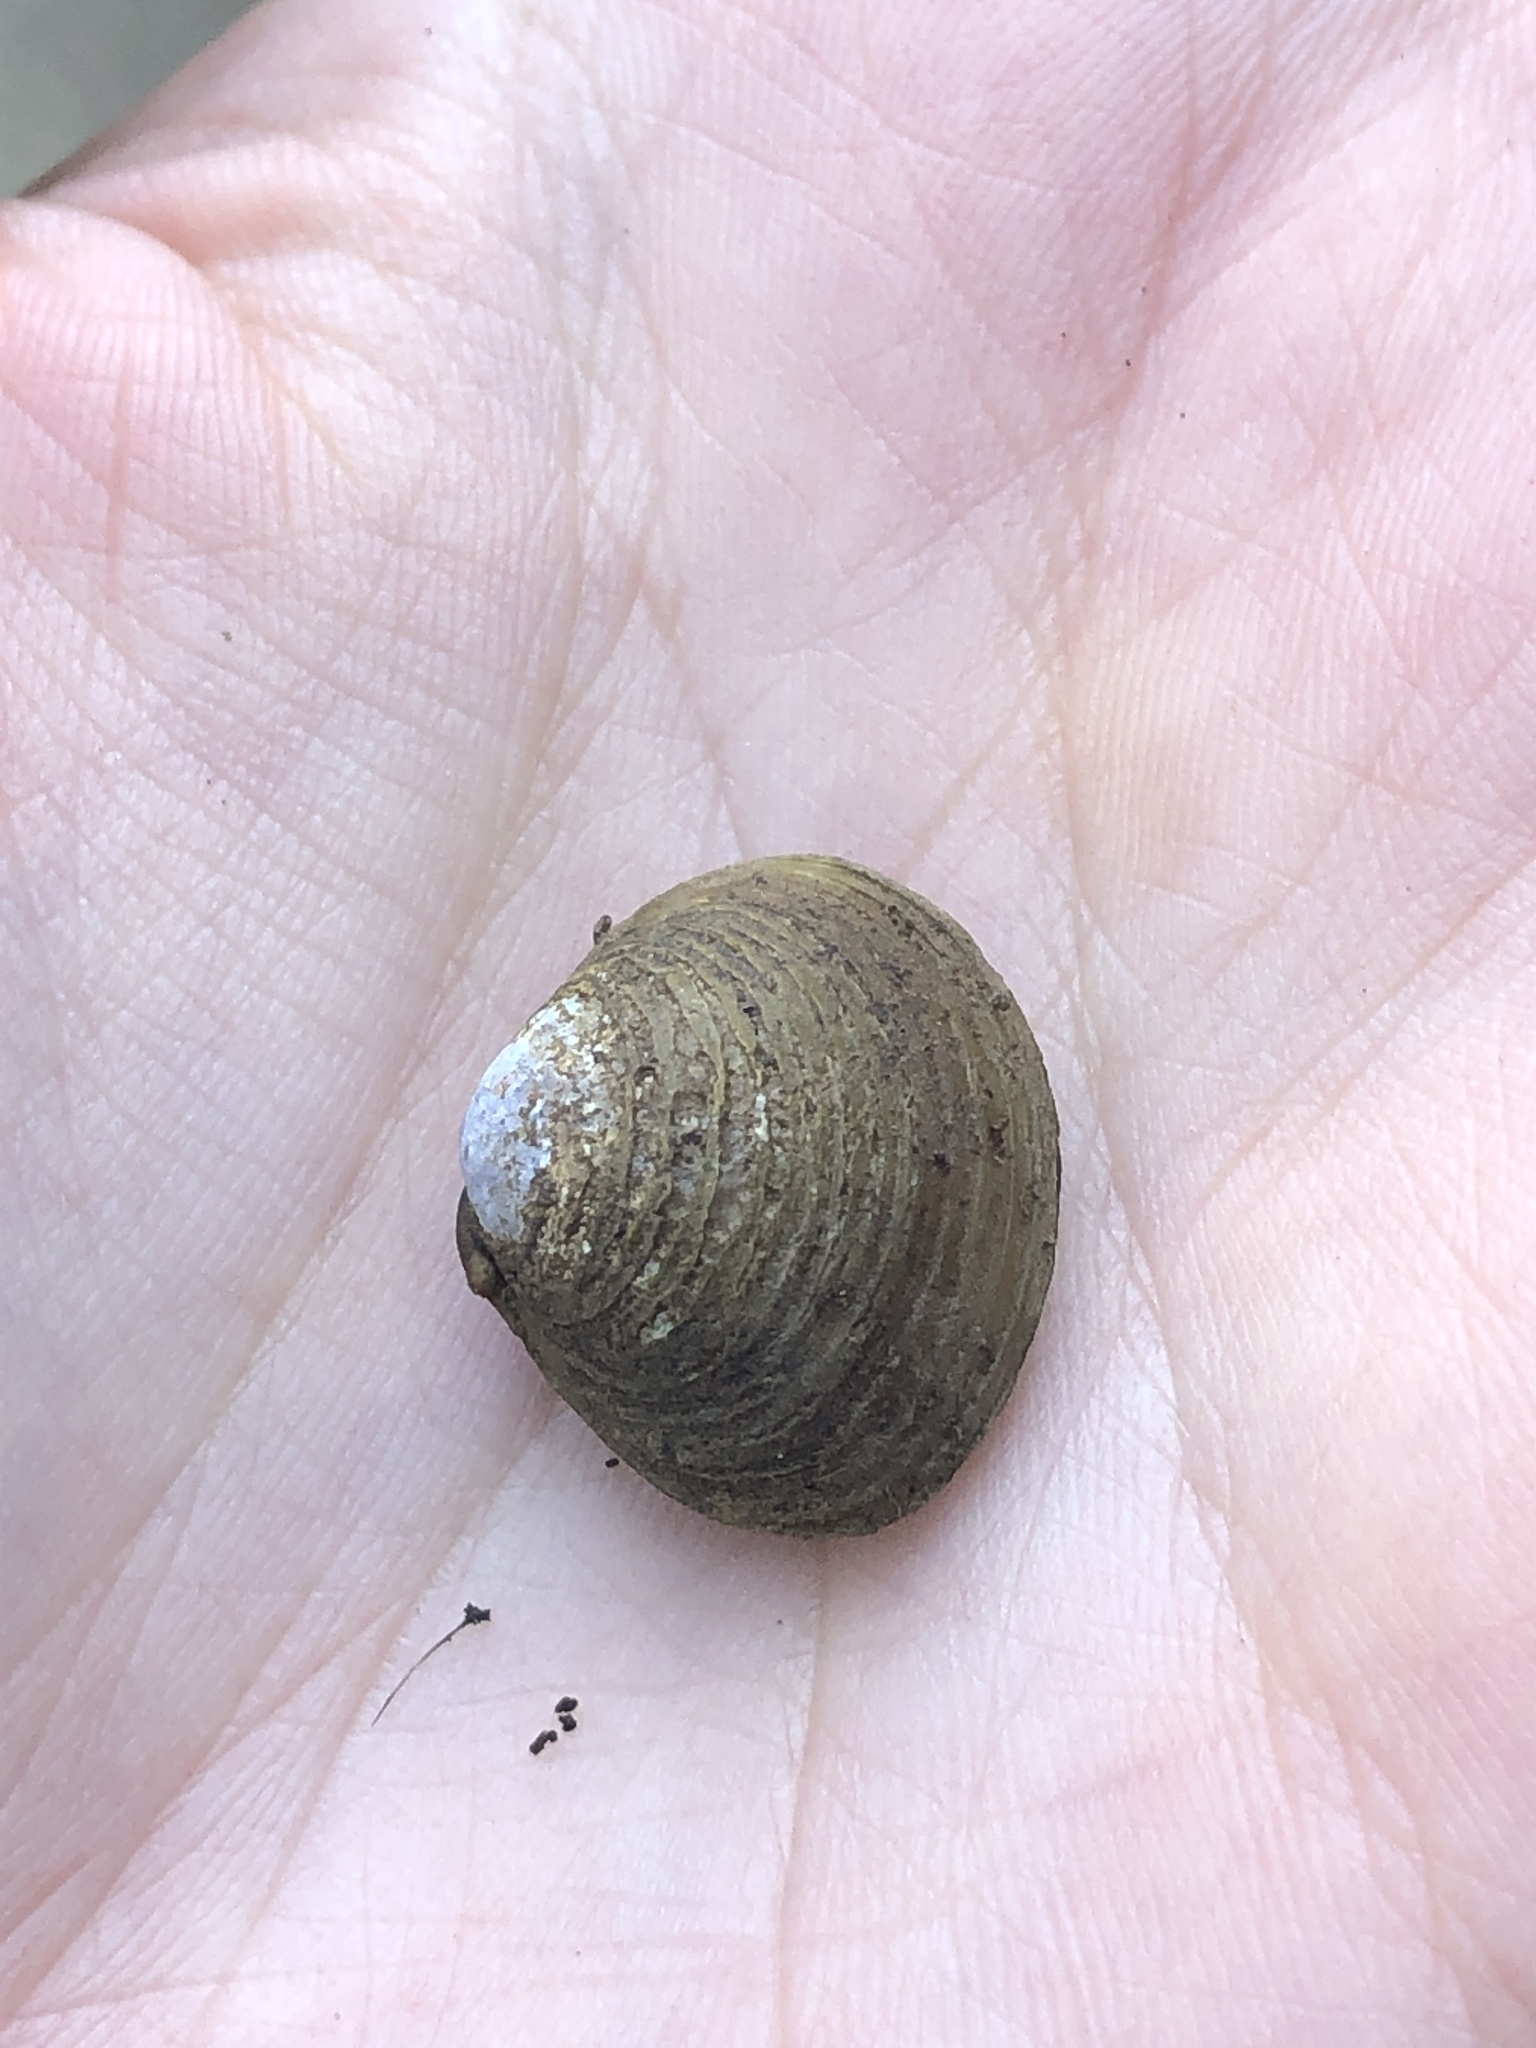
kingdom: Animalia
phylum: Mollusca
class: Bivalvia
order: Venerida
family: Cyrenidae
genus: Corbicula
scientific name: Corbicula fluminea
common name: Asian clam
